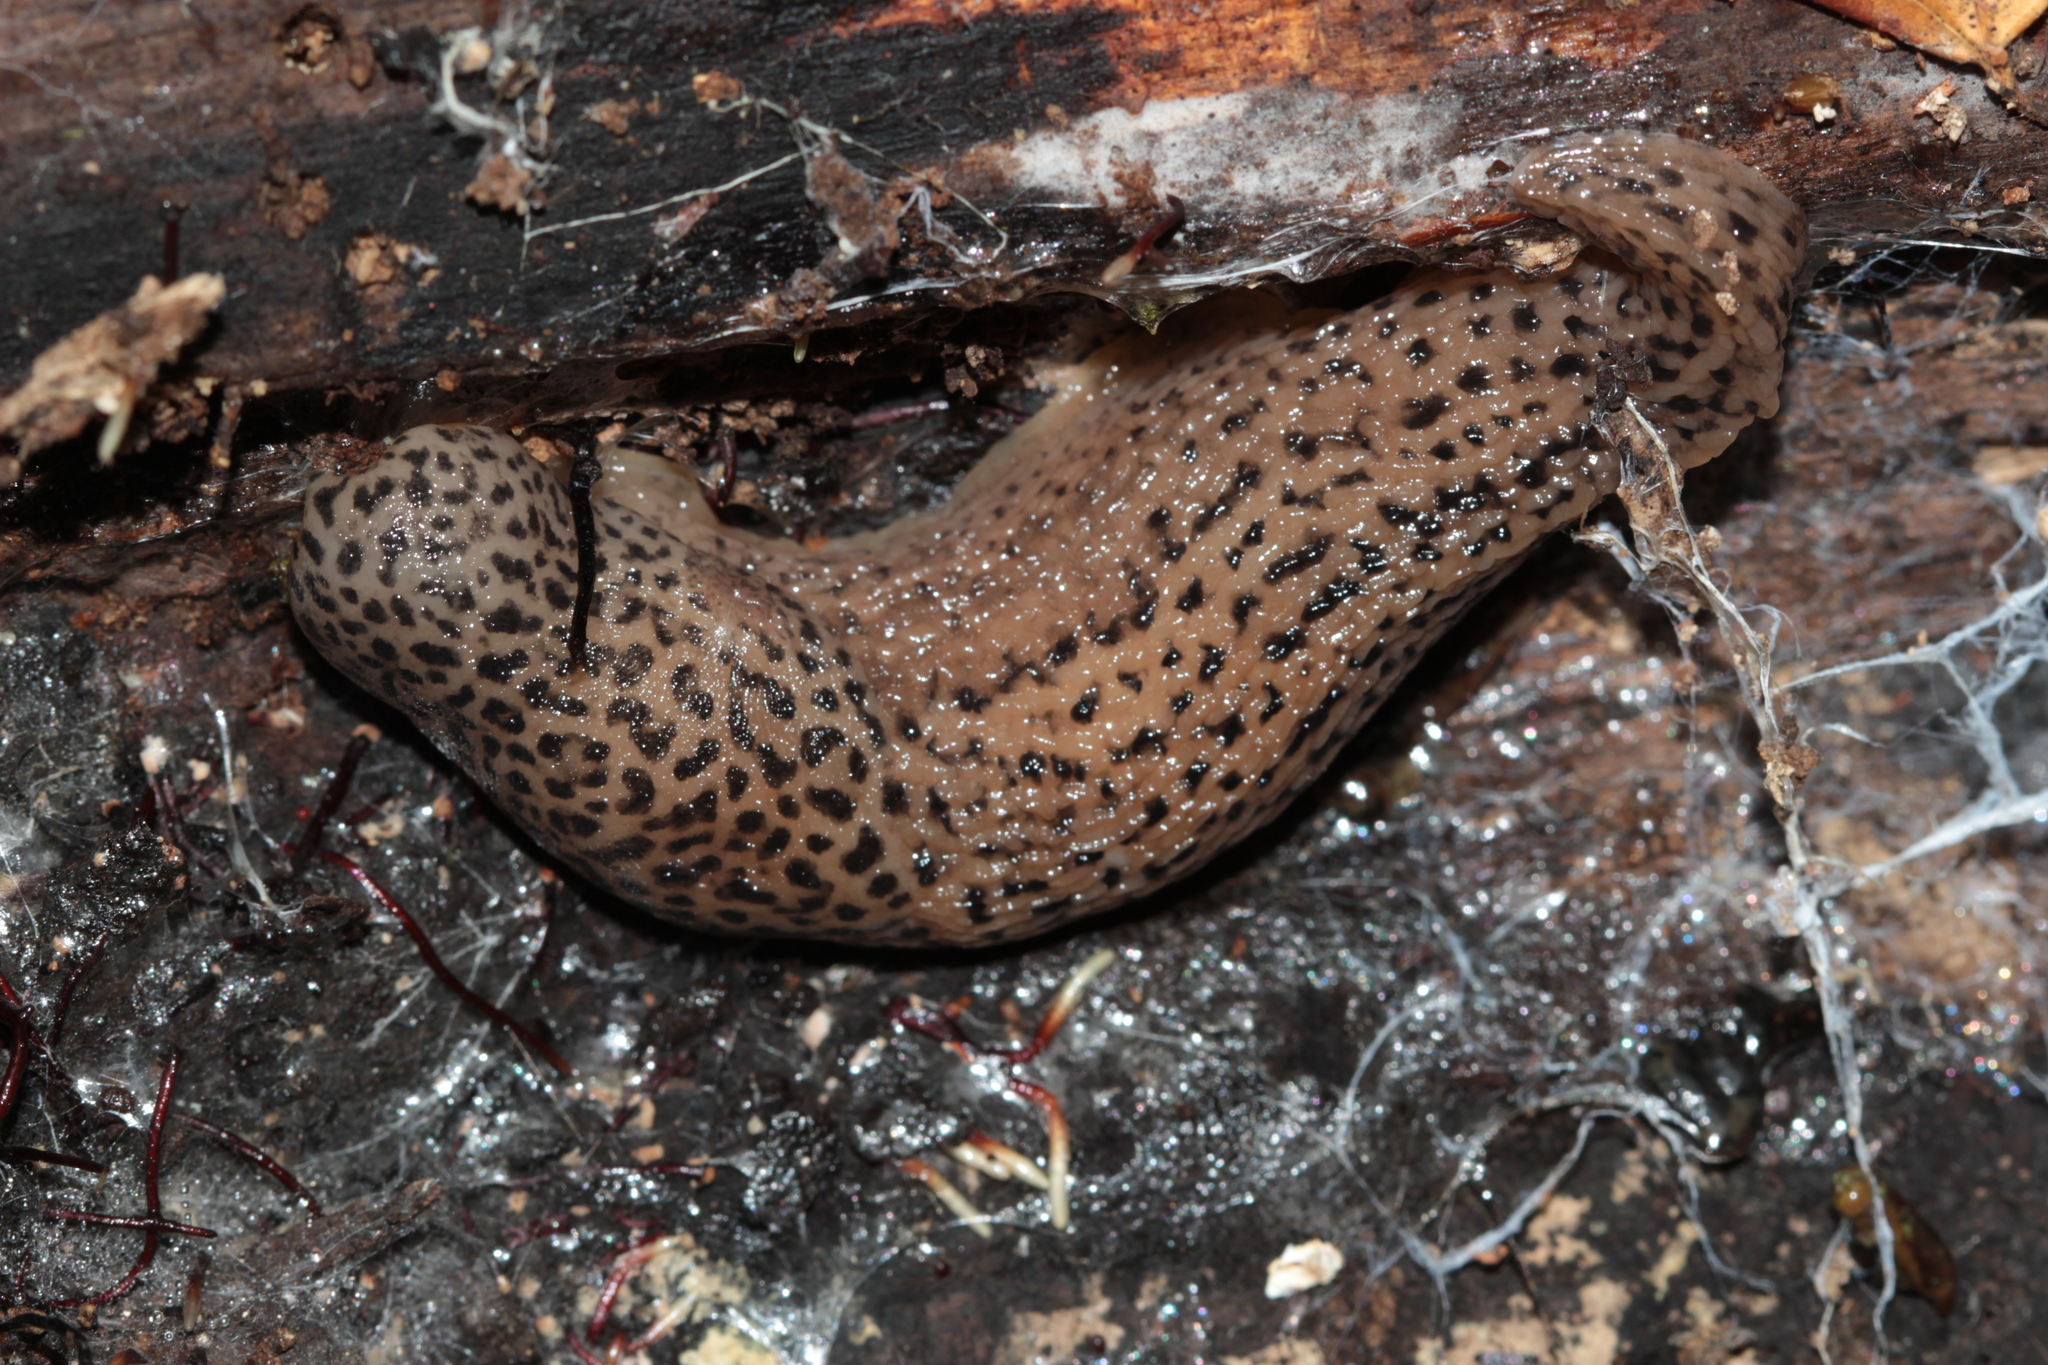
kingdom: Animalia
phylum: Mollusca
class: Gastropoda
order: Stylommatophora
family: Limacidae
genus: Limax
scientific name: Limax maximus
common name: Great grey slug
